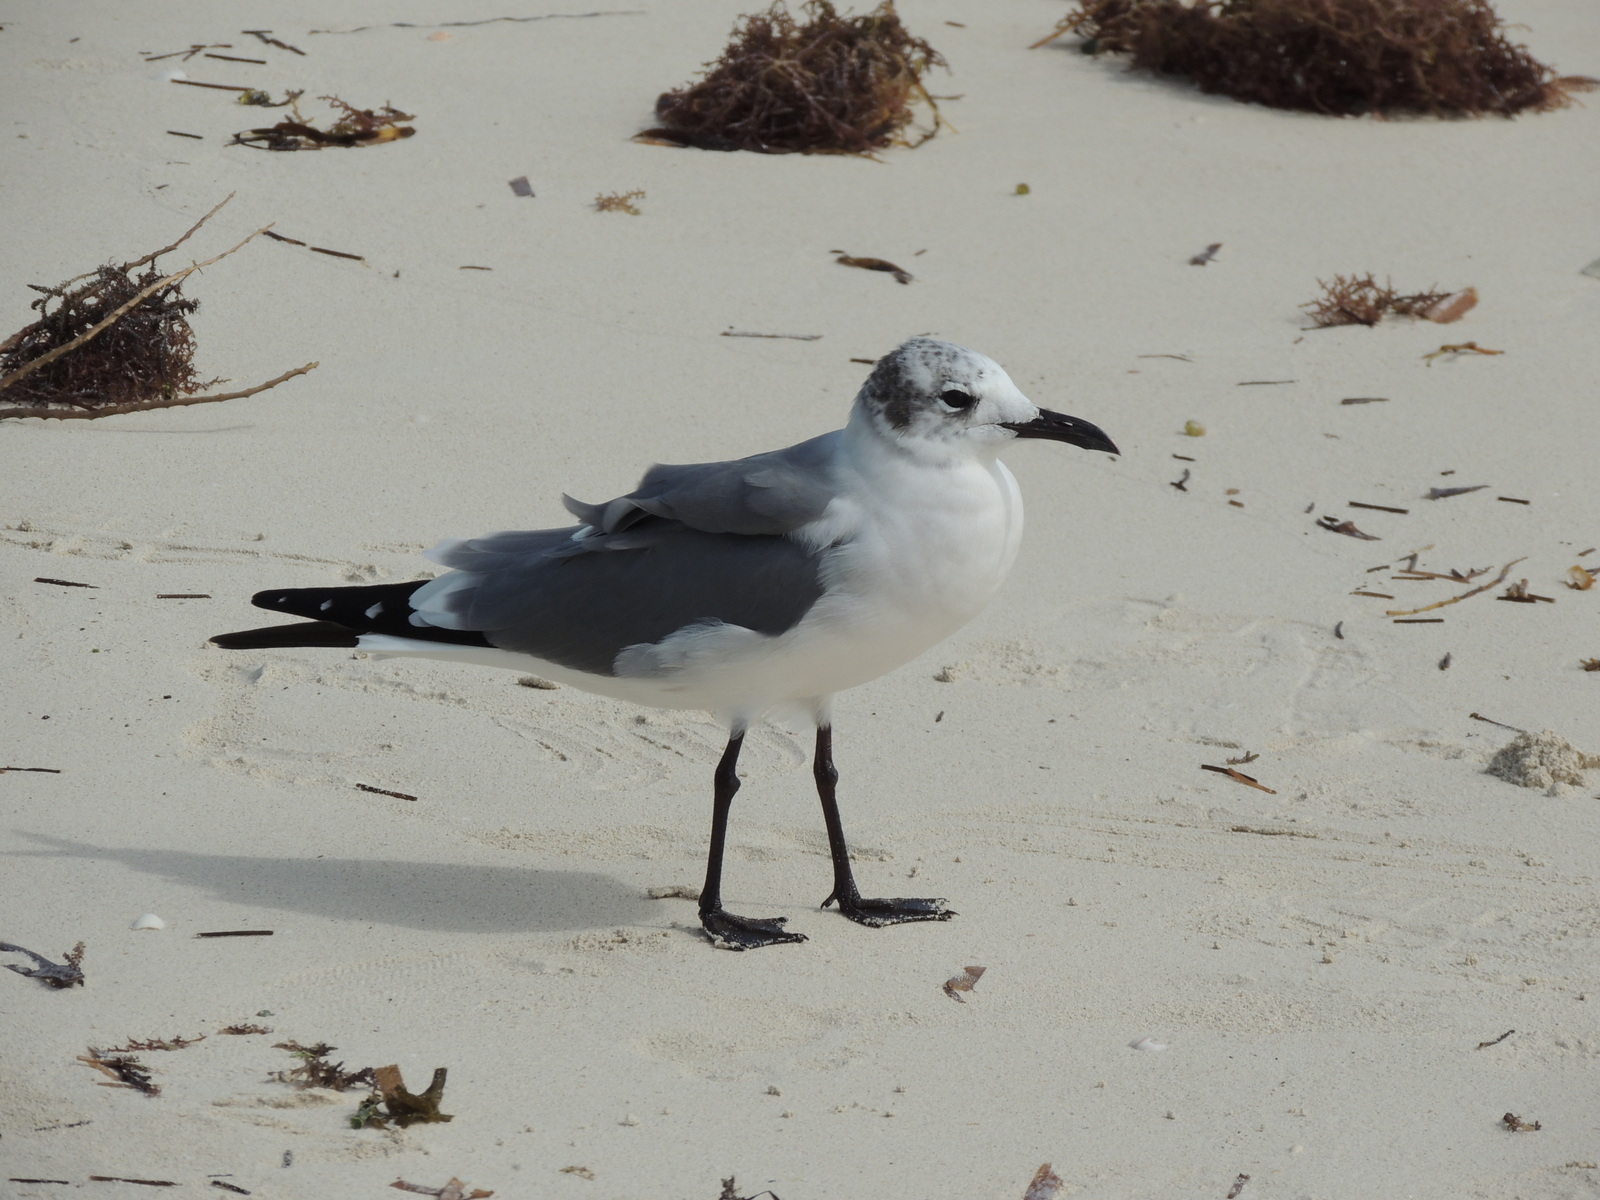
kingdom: Animalia
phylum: Chordata
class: Aves
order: Charadriiformes
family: Laridae
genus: Leucophaeus
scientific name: Leucophaeus atricilla
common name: Laughing gull
